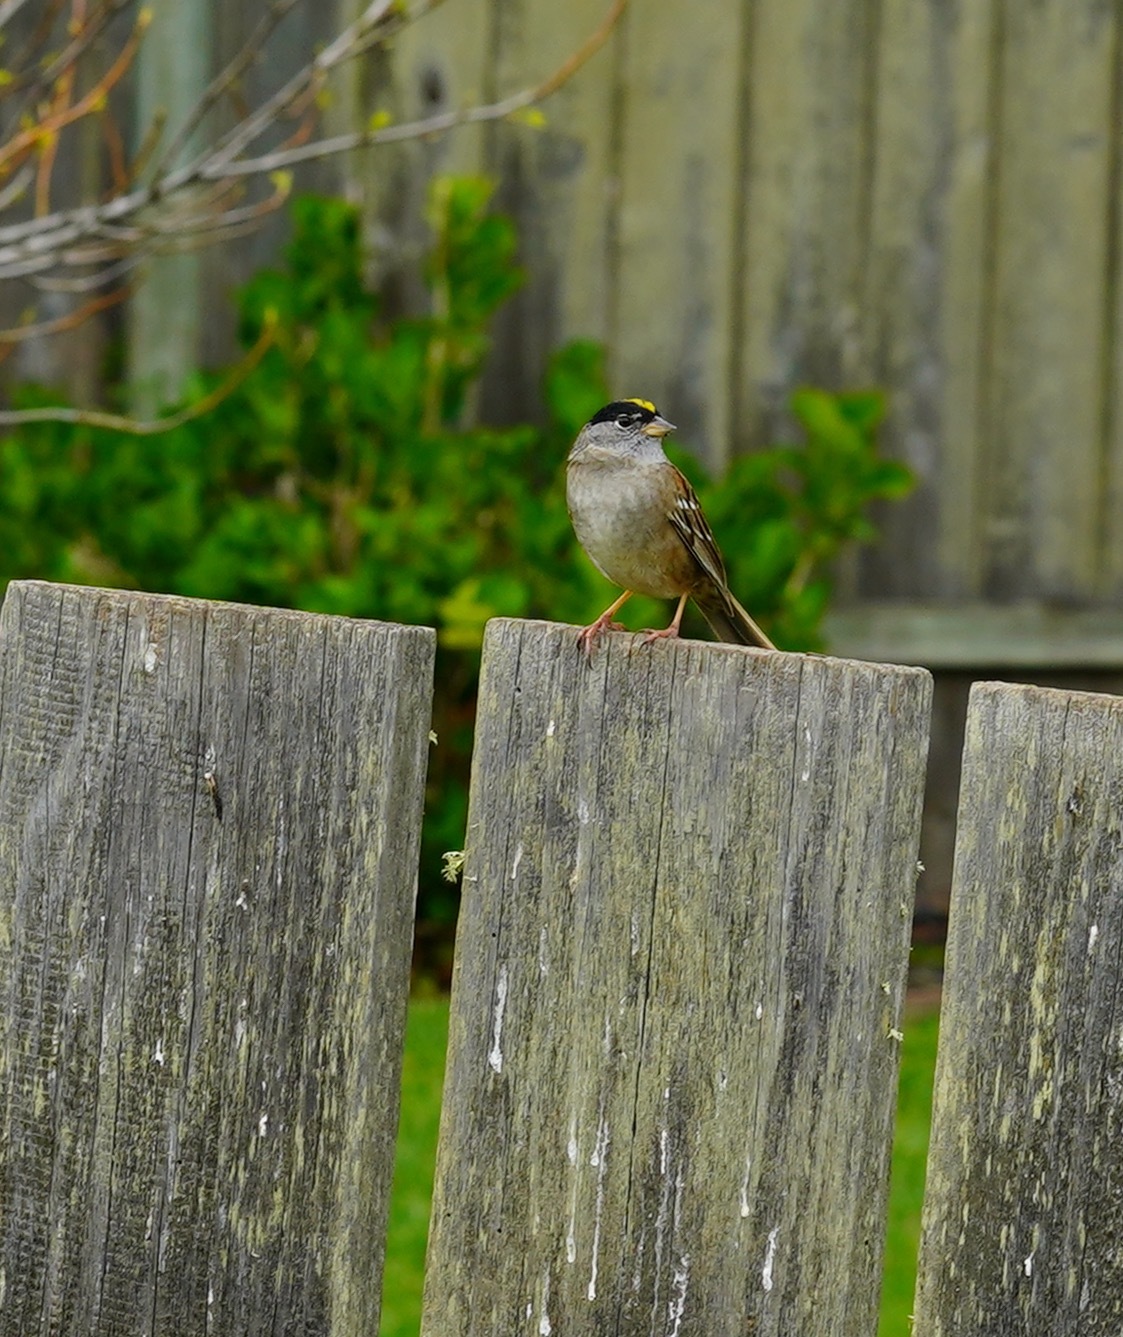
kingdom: Animalia
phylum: Chordata
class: Aves
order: Passeriformes
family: Passerellidae
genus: Zonotrichia
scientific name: Zonotrichia atricapilla
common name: Golden-crowned sparrow
